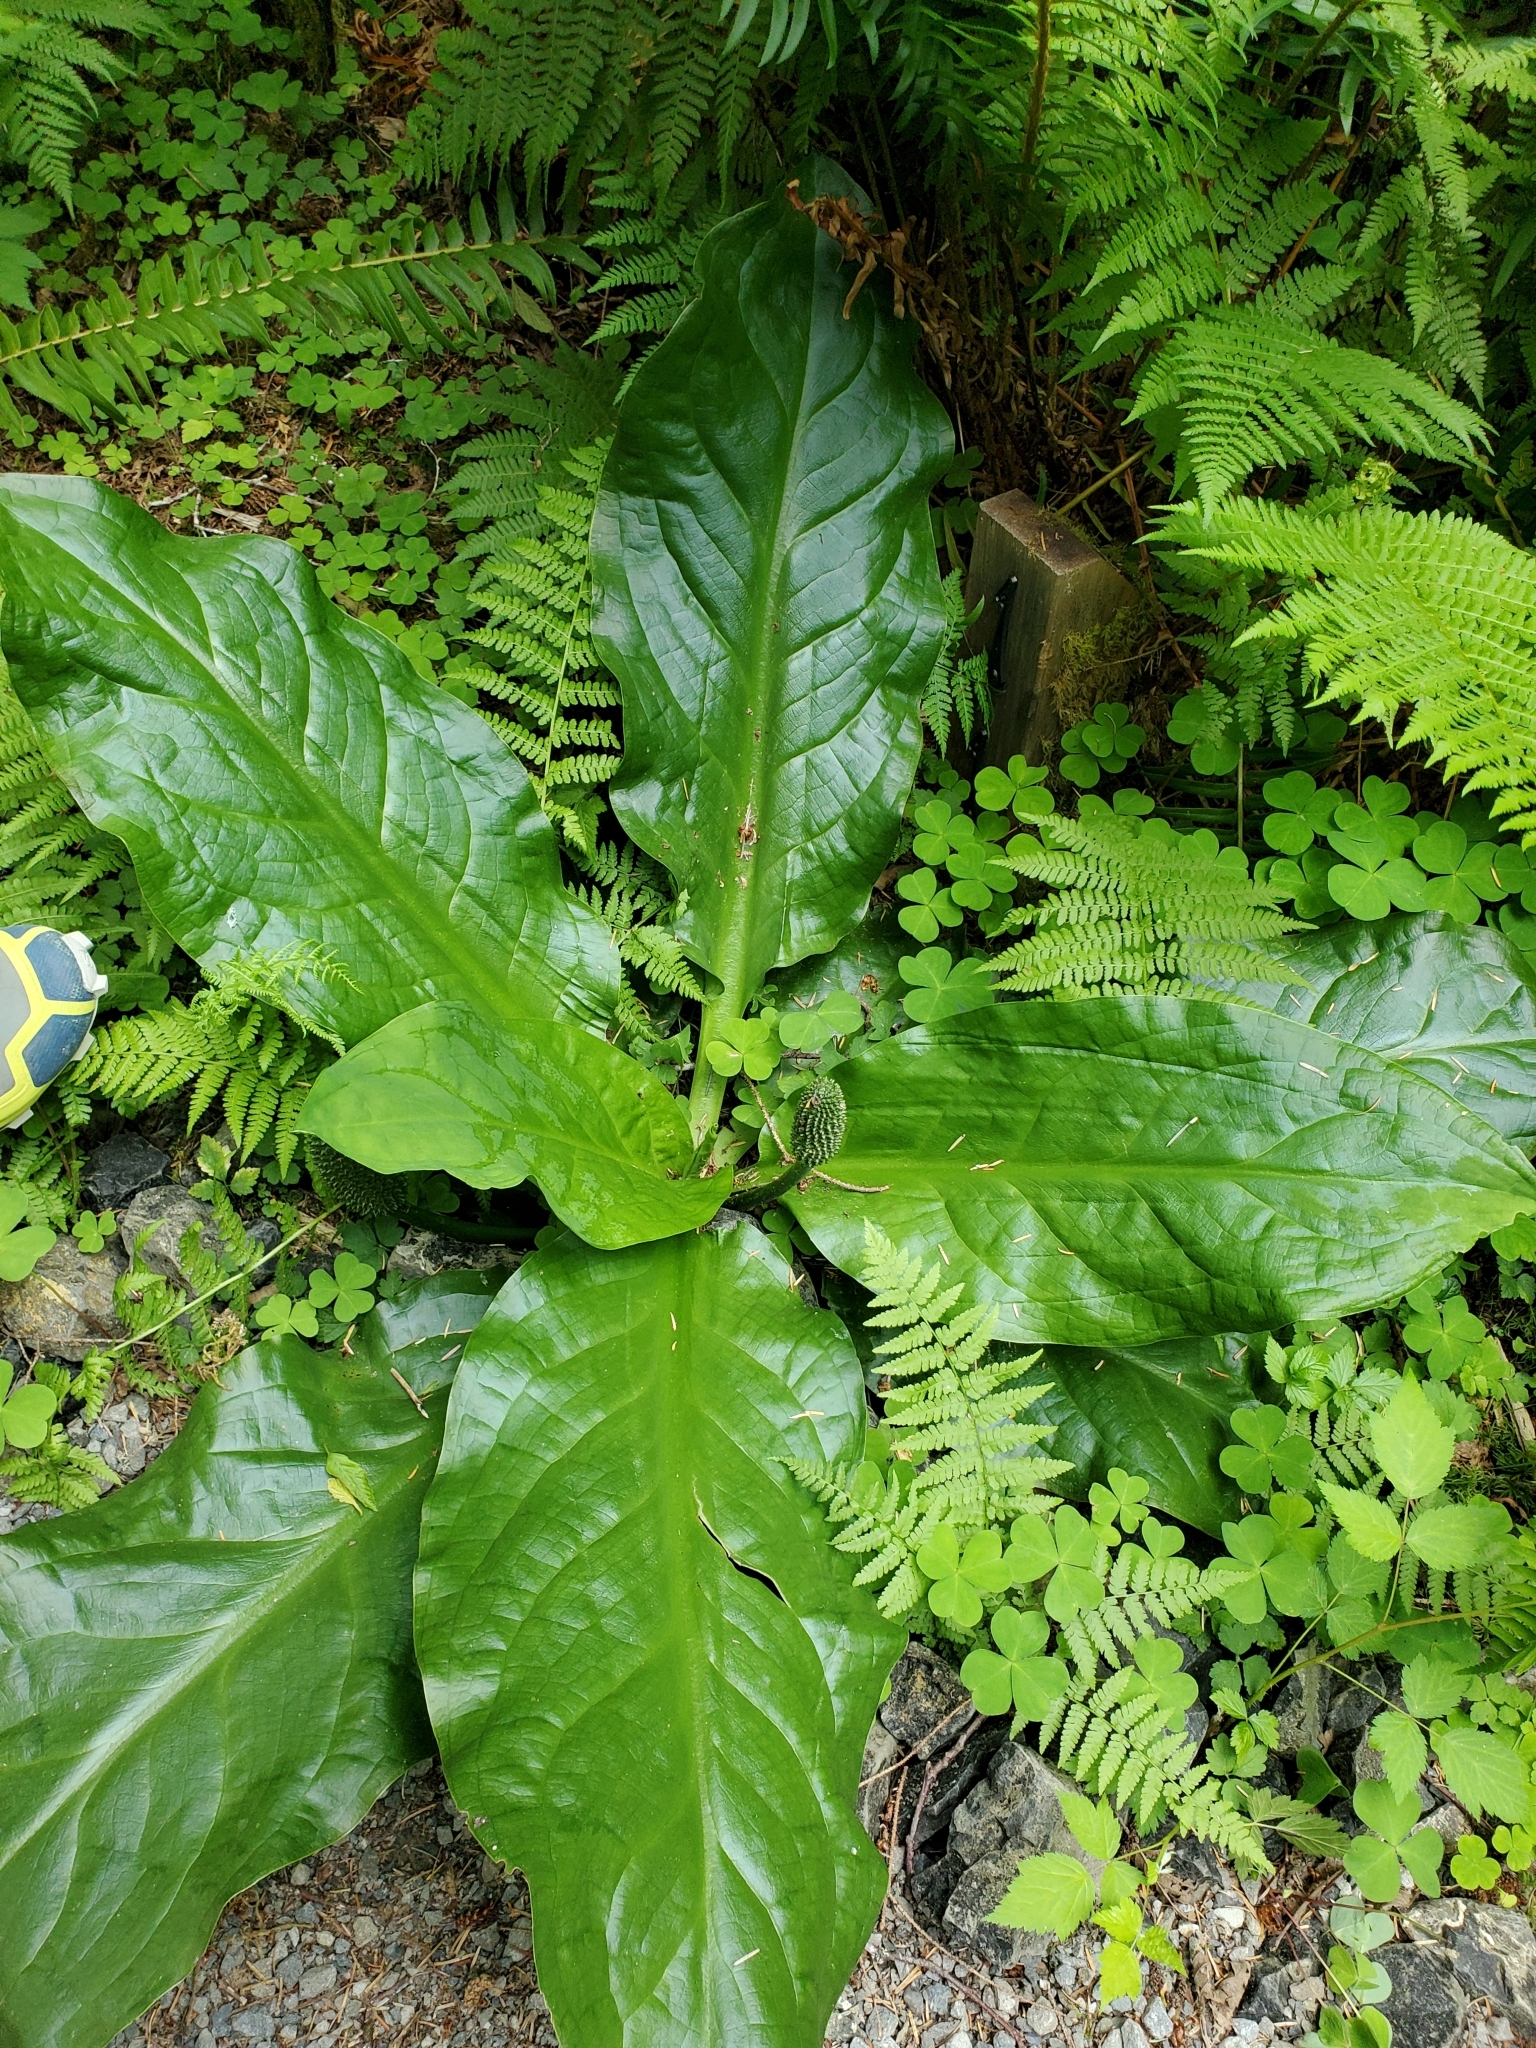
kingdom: Plantae
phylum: Tracheophyta
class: Liliopsida
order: Alismatales
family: Araceae
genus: Lysichiton
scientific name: Lysichiton americanus
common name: American skunk cabbage
